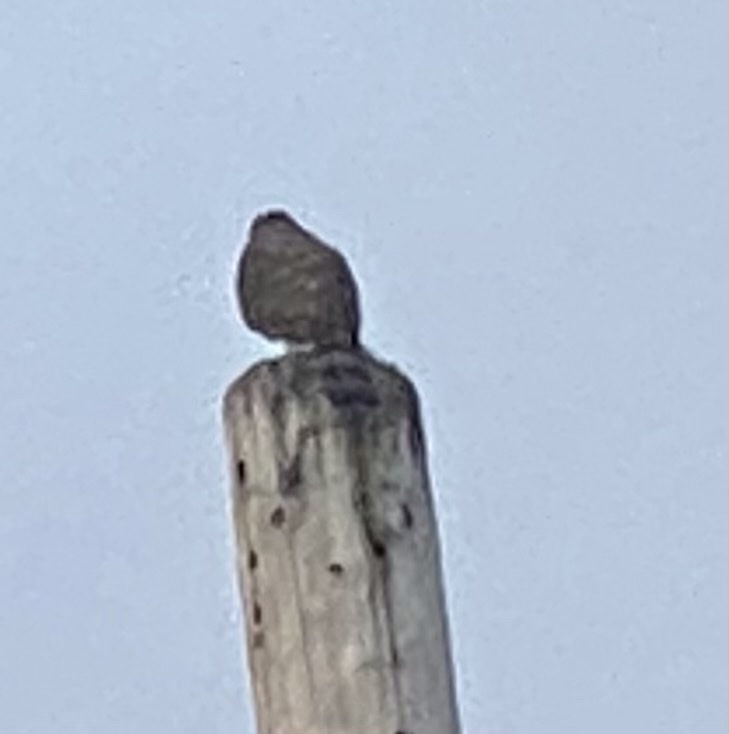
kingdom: Animalia
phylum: Chordata
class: Aves
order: Accipitriformes
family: Accipitridae
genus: Accipiter
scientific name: Accipiter cooperii
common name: Cooper's hawk
